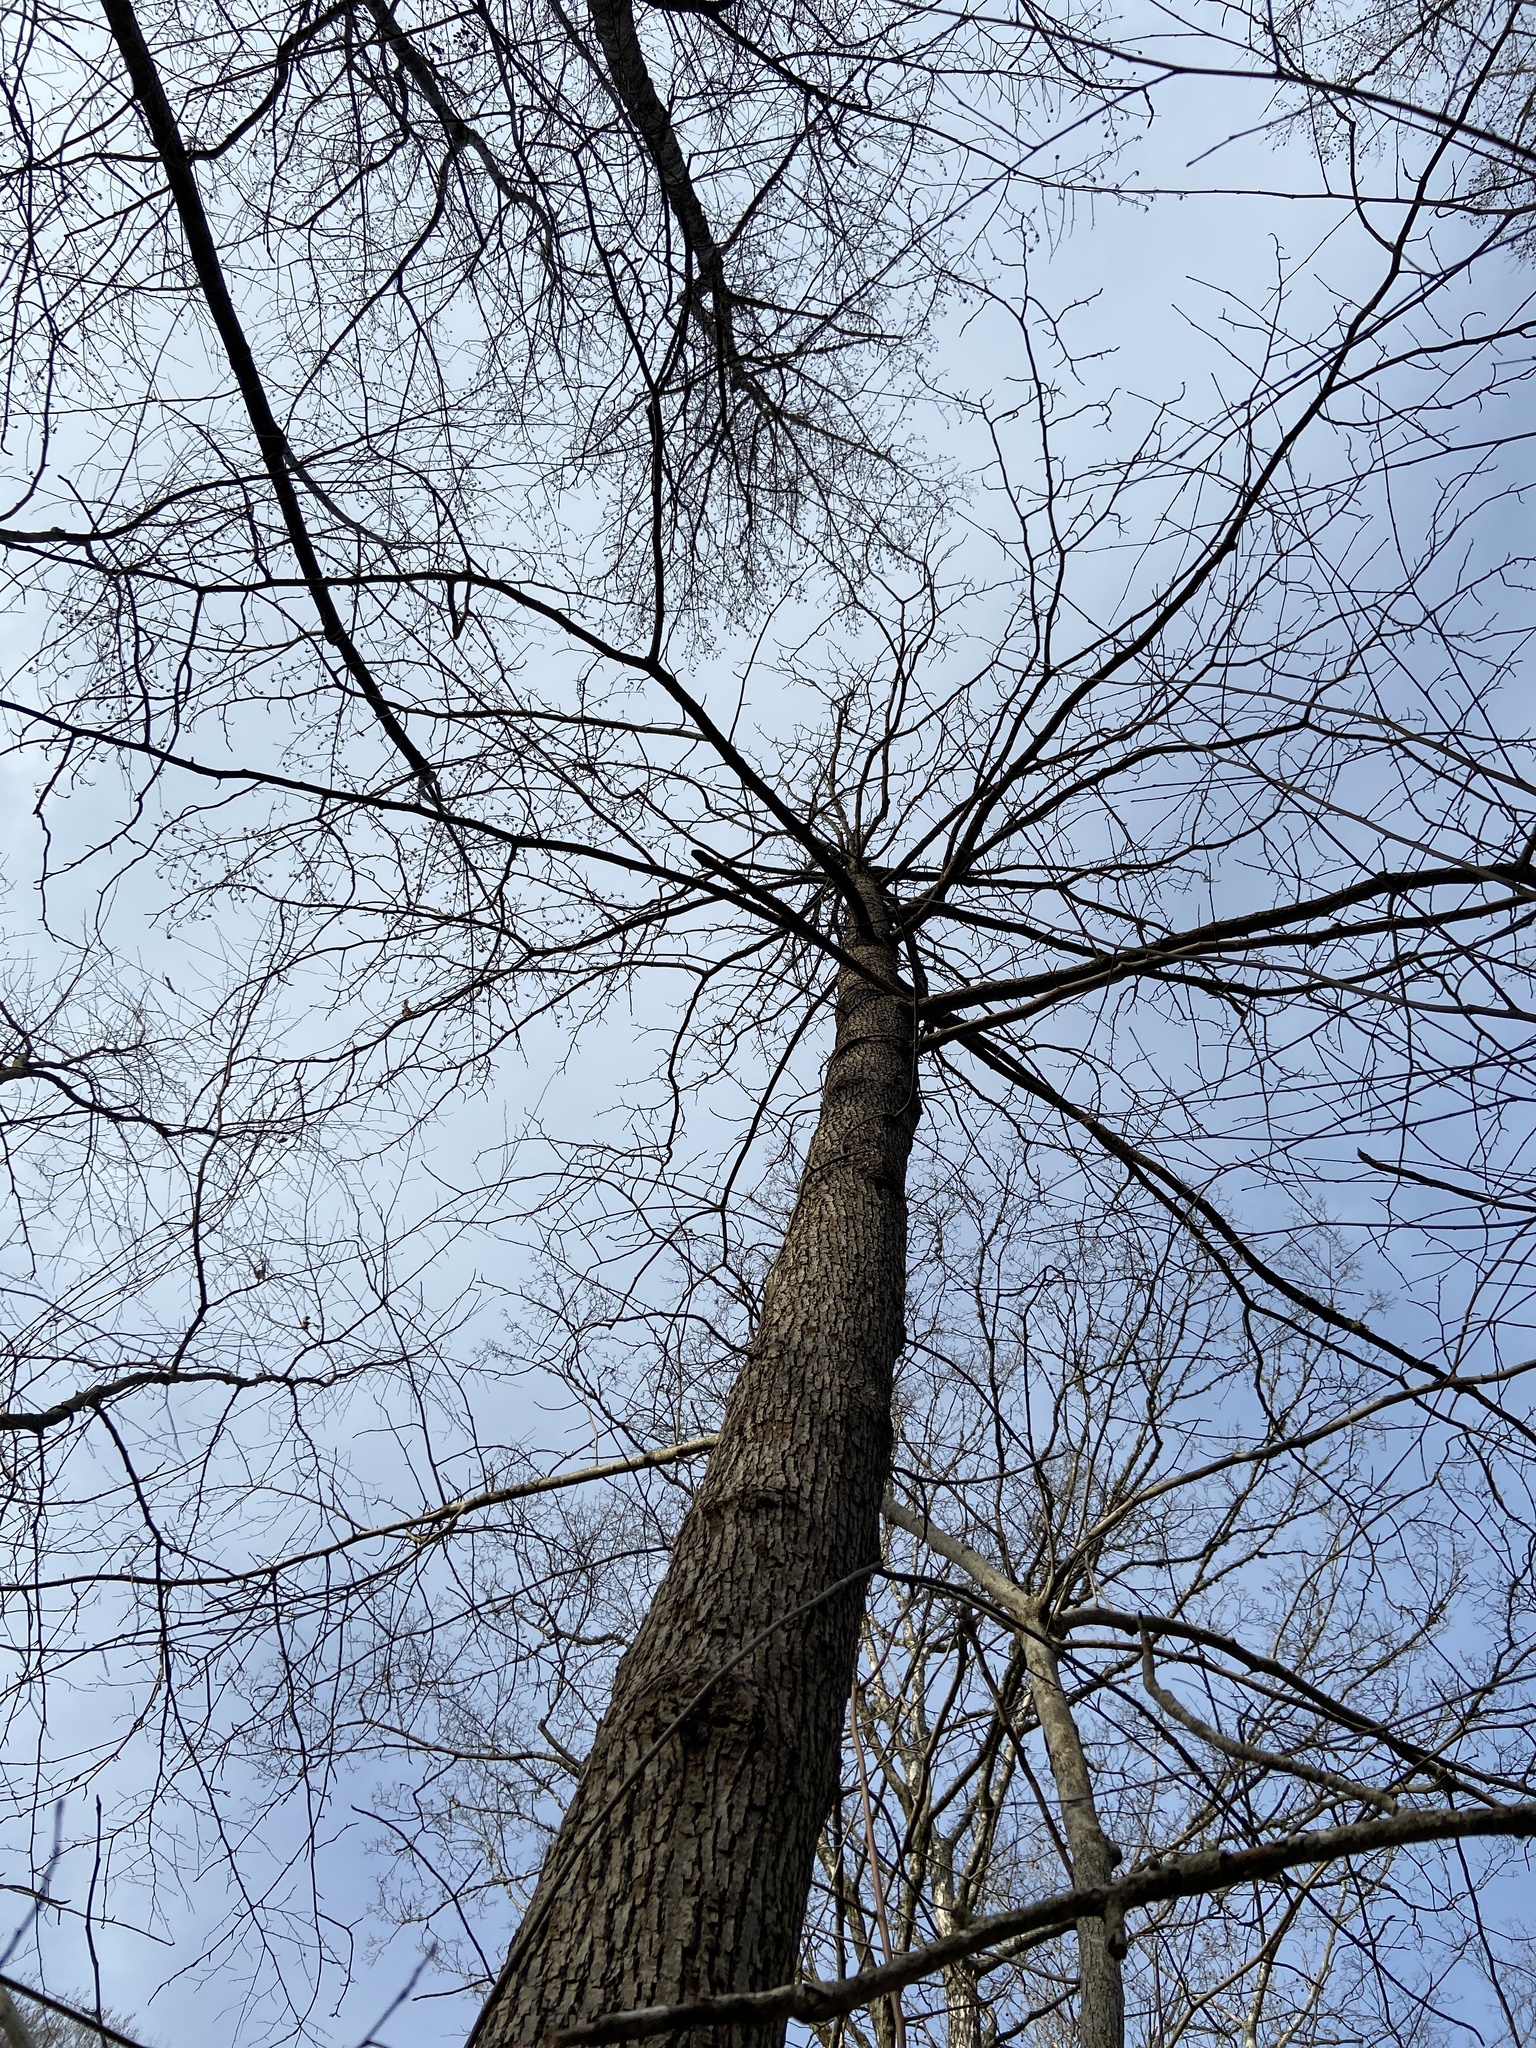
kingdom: Plantae
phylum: Tracheophyta
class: Magnoliopsida
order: Magnoliales
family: Magnoliaceae
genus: Magnolia
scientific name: Magnolia acuminata
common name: Cucumber magnolia
